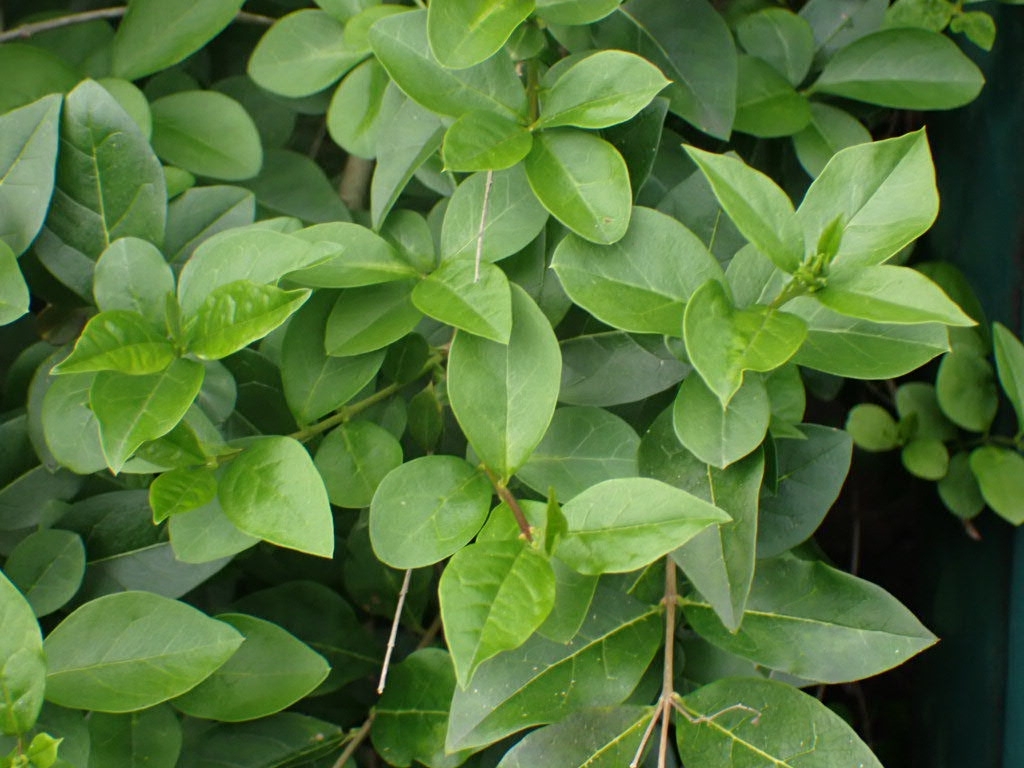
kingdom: Plantae
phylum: Tracheophyta
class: Magnoliopsida
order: Lamiales
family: Oleaceae
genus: Ligustrum
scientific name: Ligustrum ovalifolium
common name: California privet
